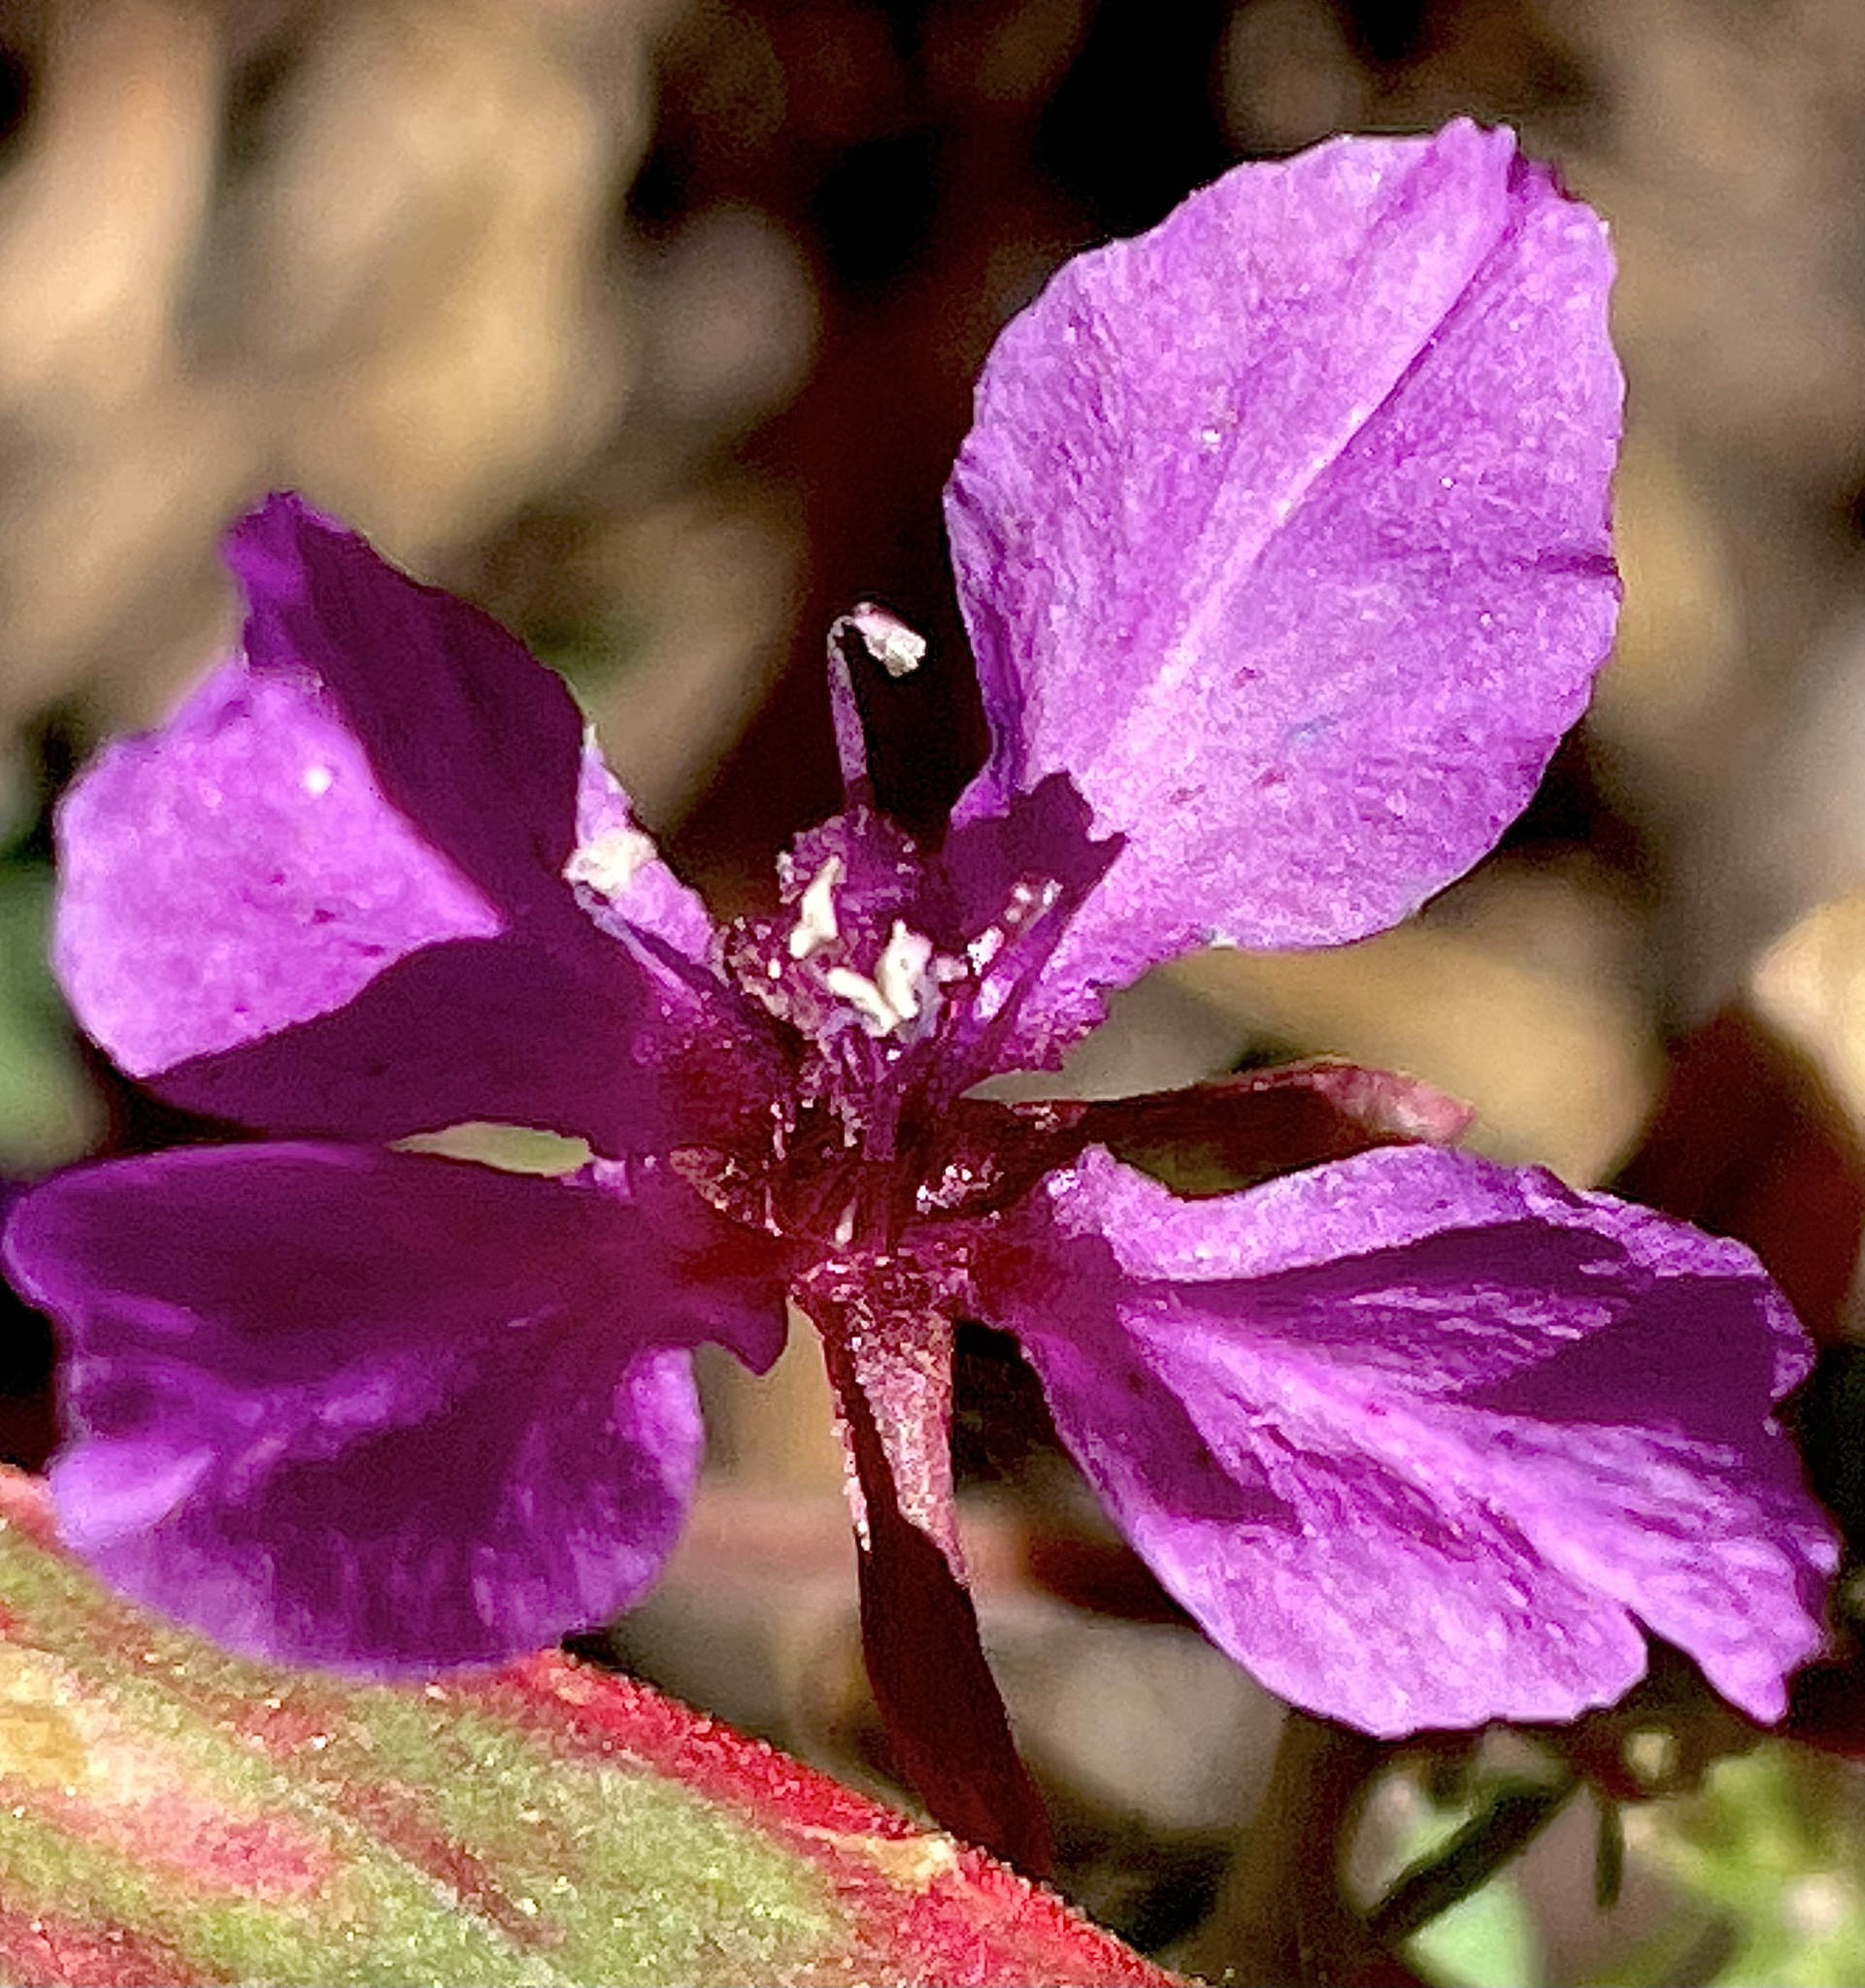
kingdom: Plantae
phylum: Tracheophyta
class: Magnoliopsida
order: Myrtales
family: Onagraceae
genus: Clarkia
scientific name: Clarkia rhomboidea
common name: Broadleaf clarkia
